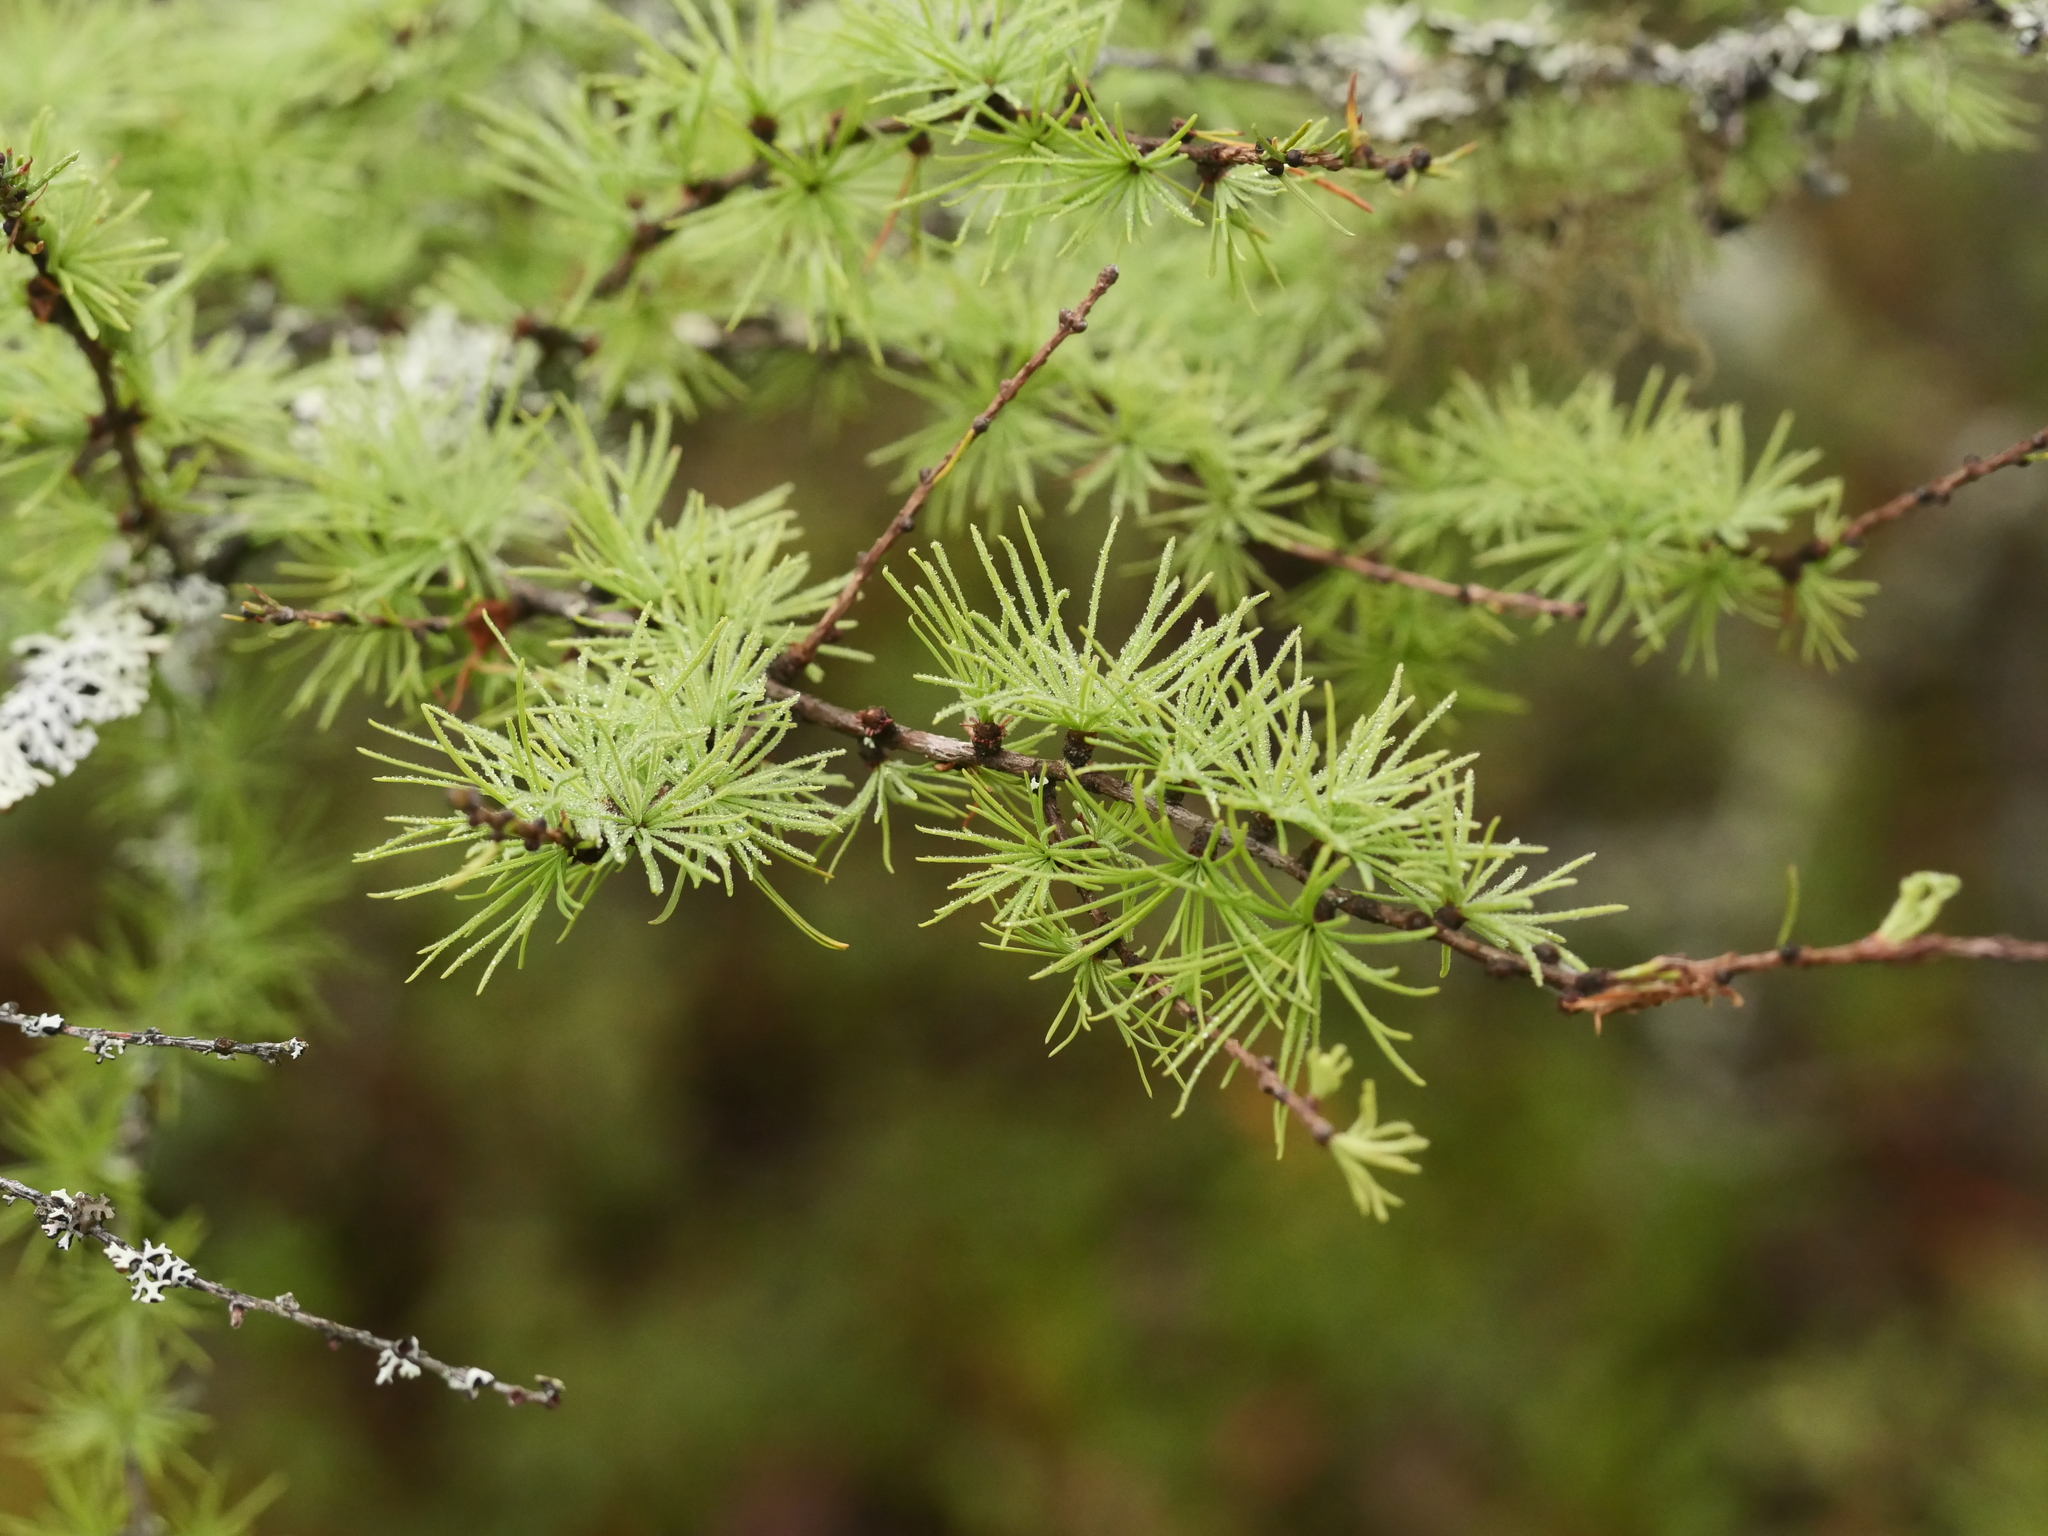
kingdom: Plantae
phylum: Tracheophyta
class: Pinopsida
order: Pinales
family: Pinaceae
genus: Larix
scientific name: Larix laricina
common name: American larch
